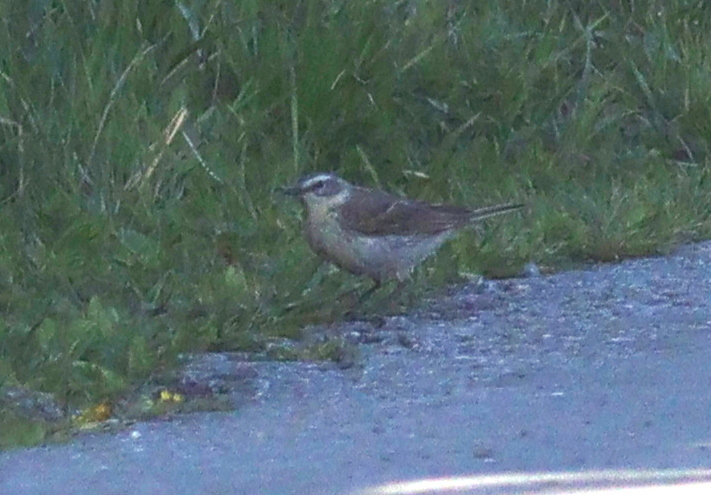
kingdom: Animalia
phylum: Chordata
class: Aves
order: Passeriformes
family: Motacillidae
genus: Anthus
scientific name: Anthus spinoletta
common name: Water pipit
